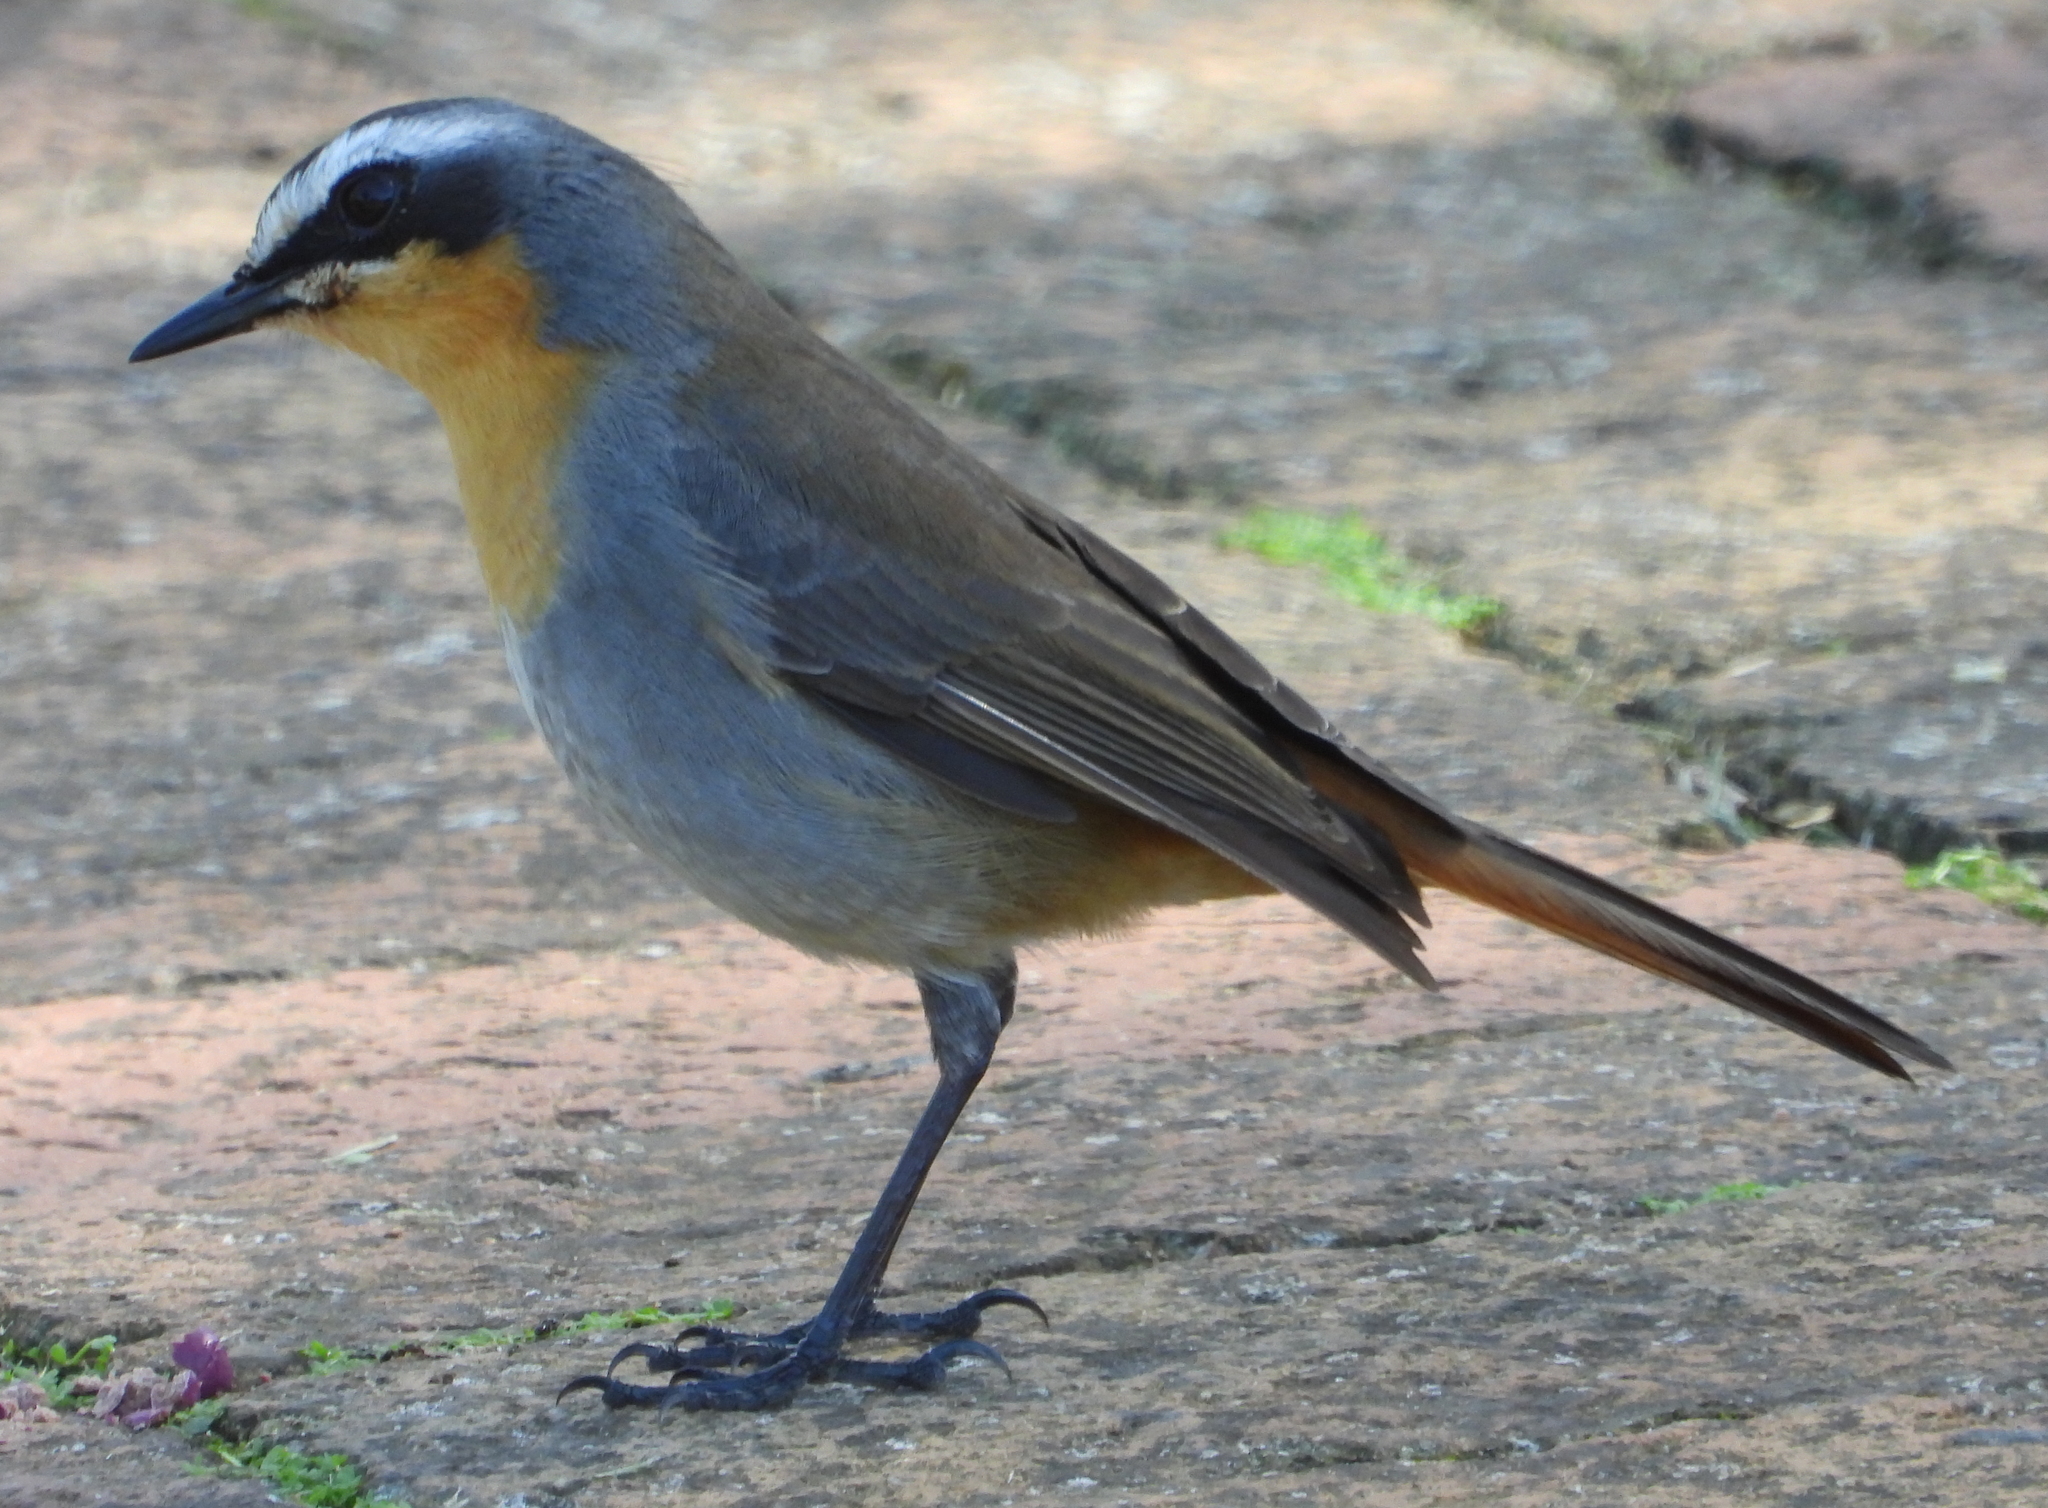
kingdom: Animalia
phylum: Chordata
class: Aves
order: Passeriformes
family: Muscicapidae
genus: Cossypha
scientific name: Cossypha caffra
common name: Cape robin-chat
